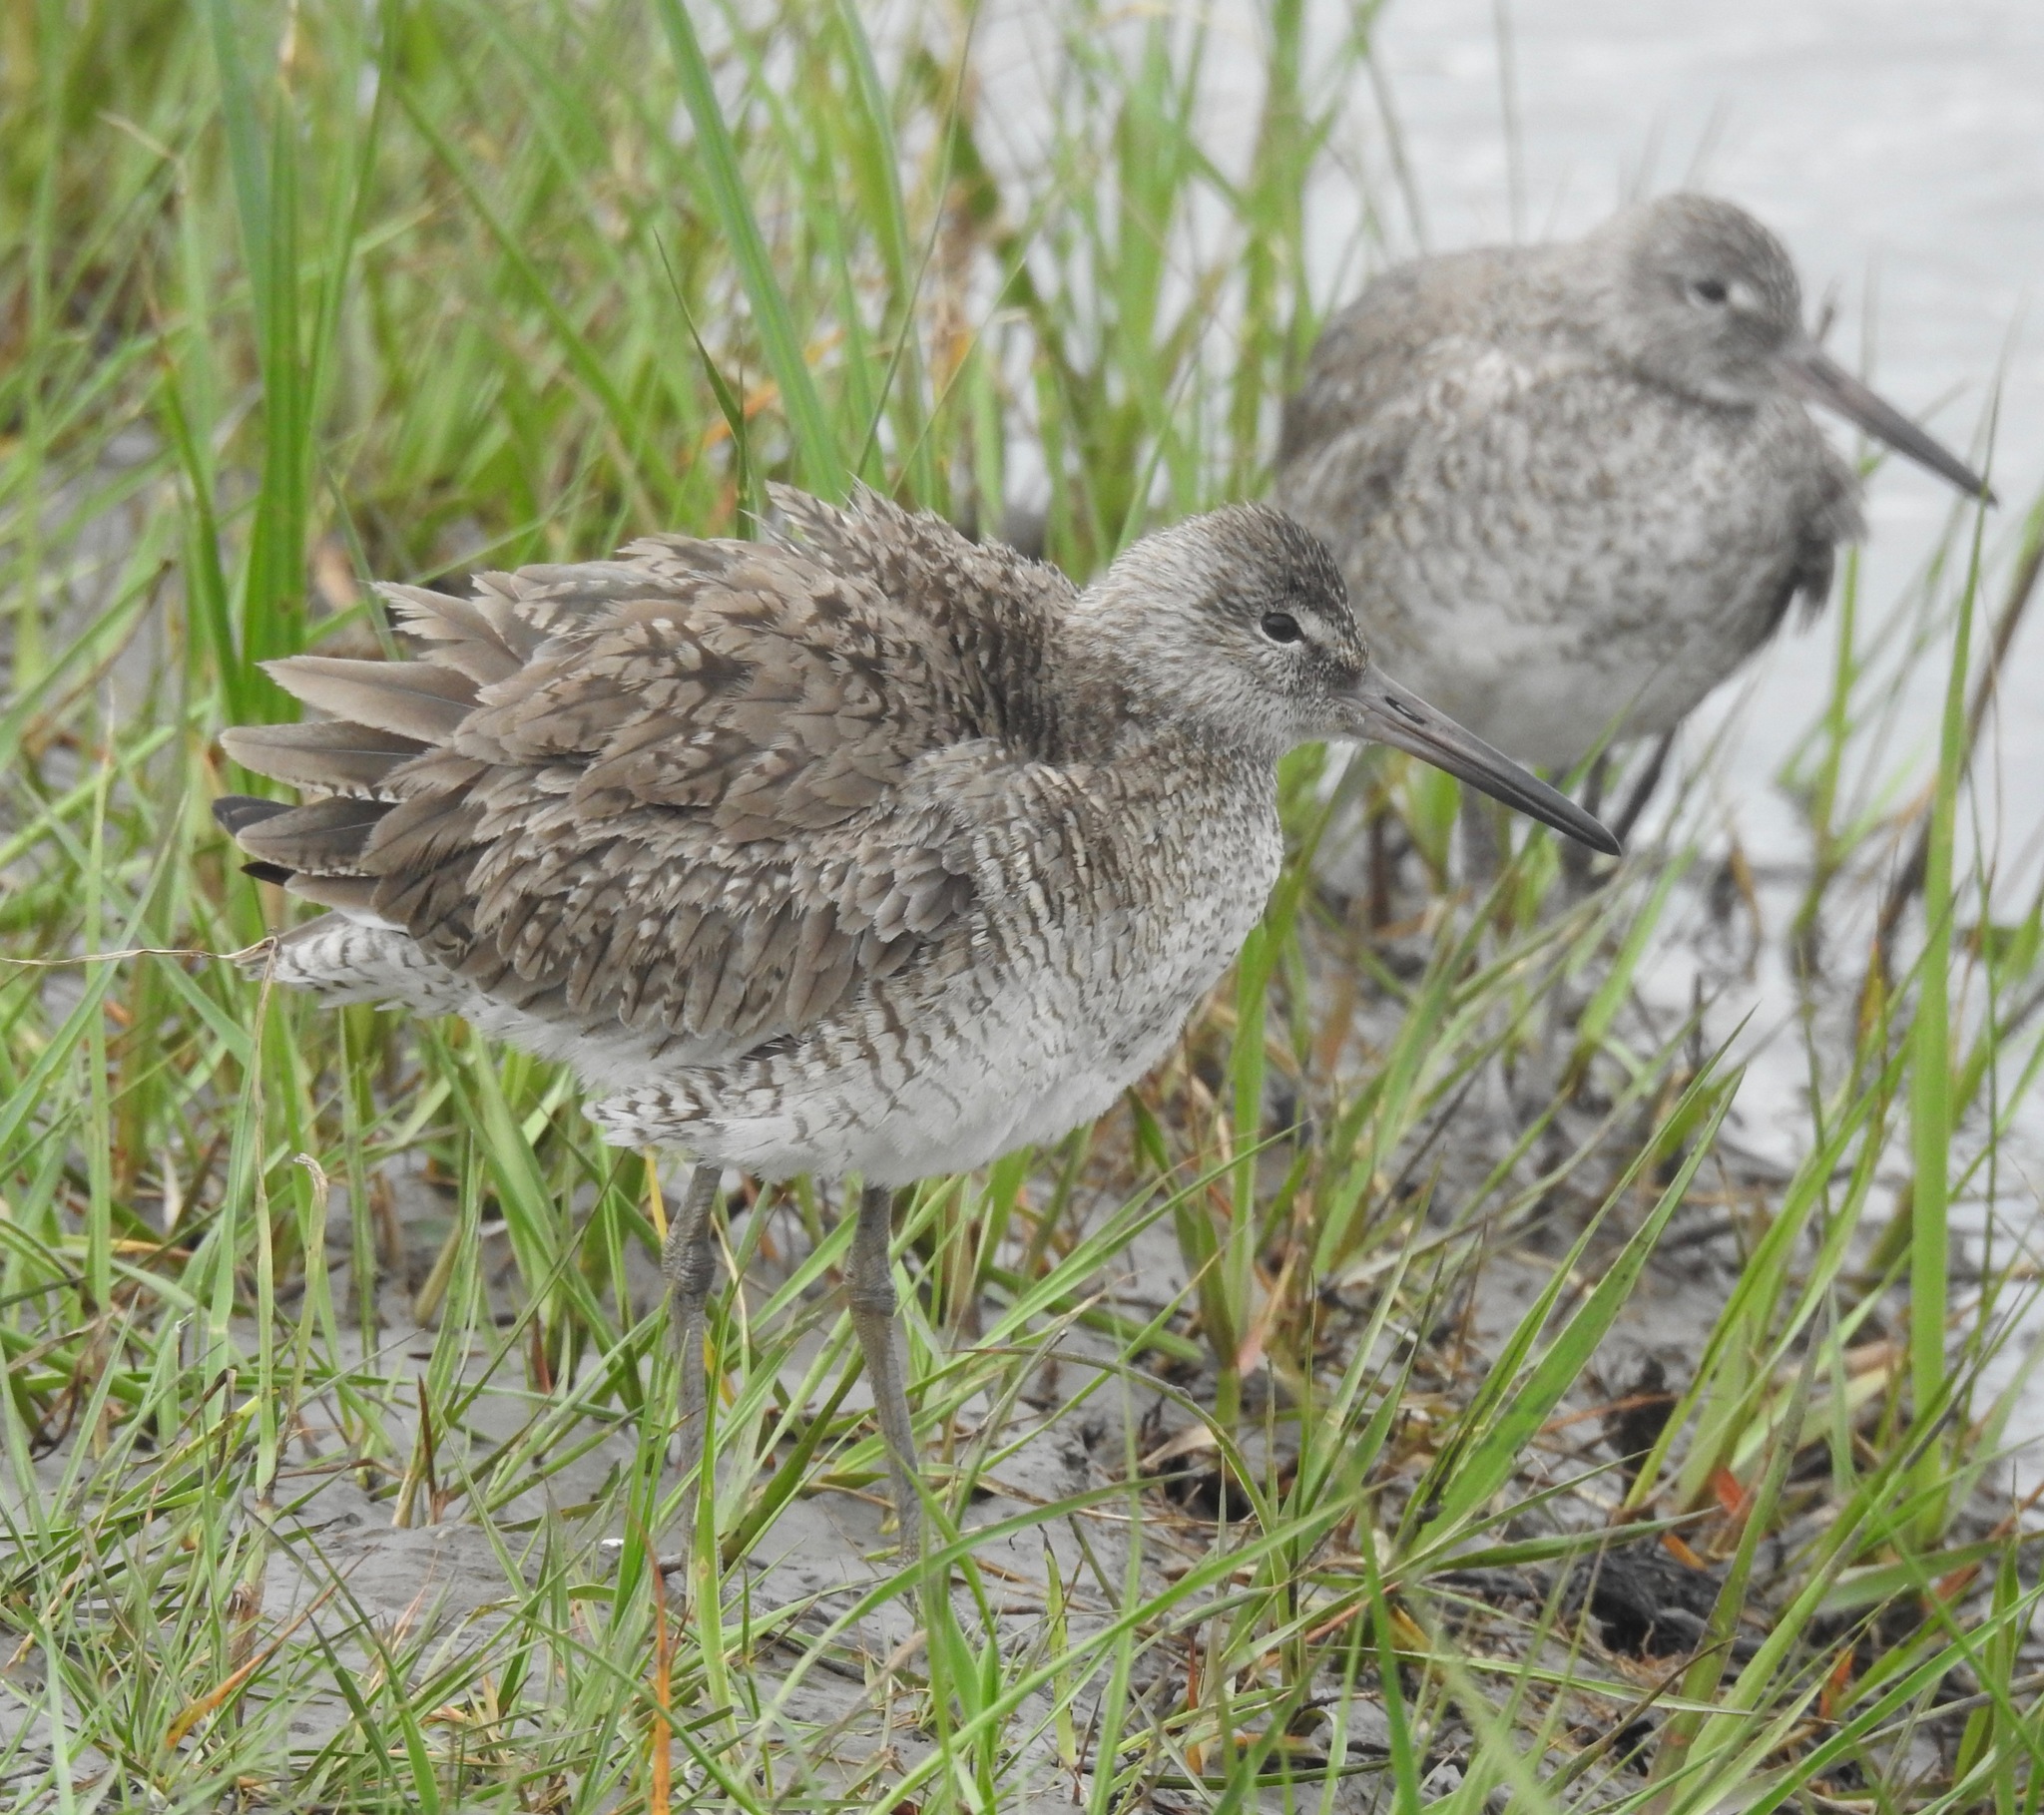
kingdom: Animalia
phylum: Chordata
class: Aves
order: Charadriiformes
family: Scolopacidae
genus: Tringa
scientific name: Tringa semipalmata
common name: Willet
